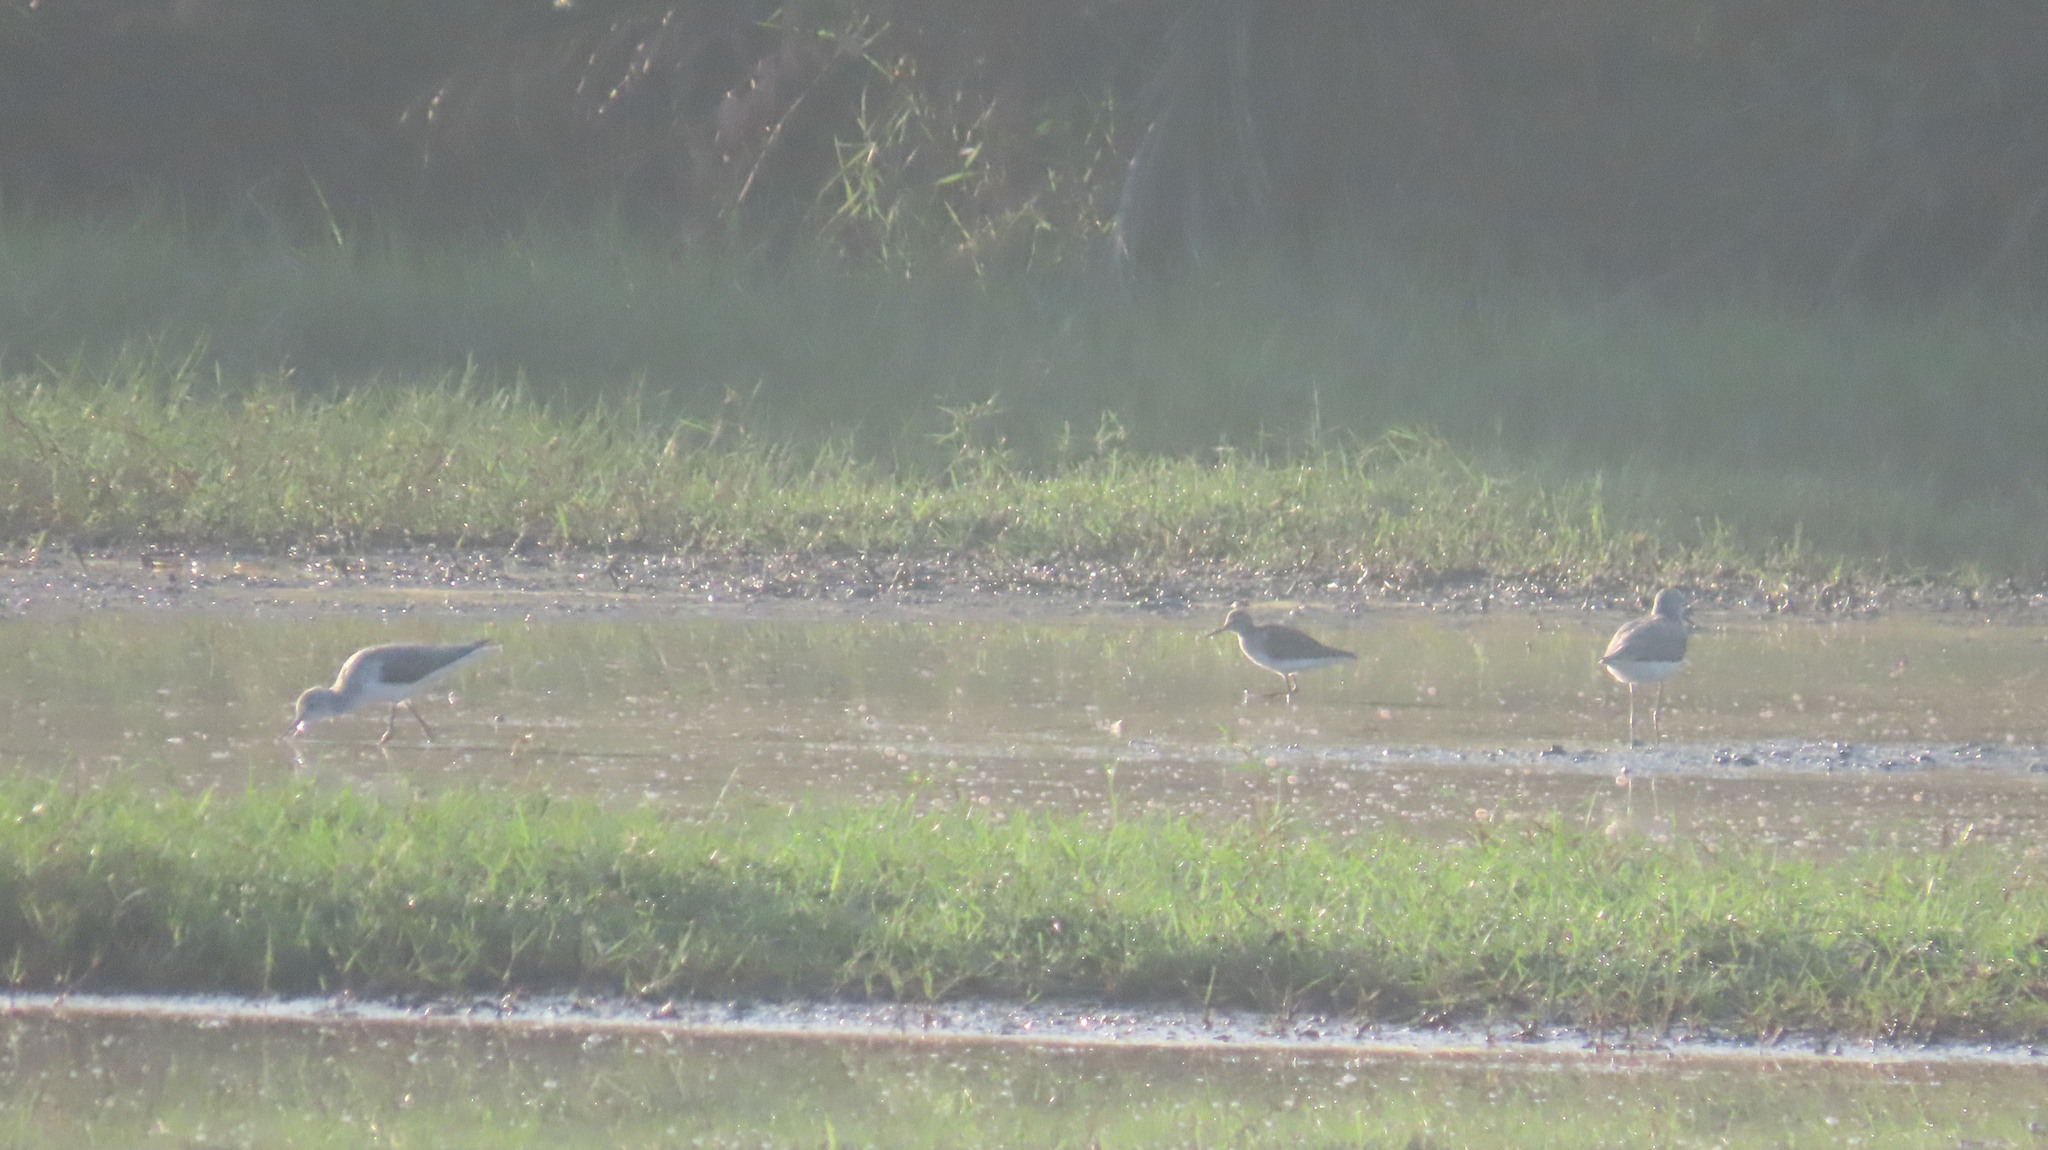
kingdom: Animalia
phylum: Chordata
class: Aves
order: Charadriiformes
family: Scolopacidae
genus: Tringa
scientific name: Tringa nebularia
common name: Common greenshank
